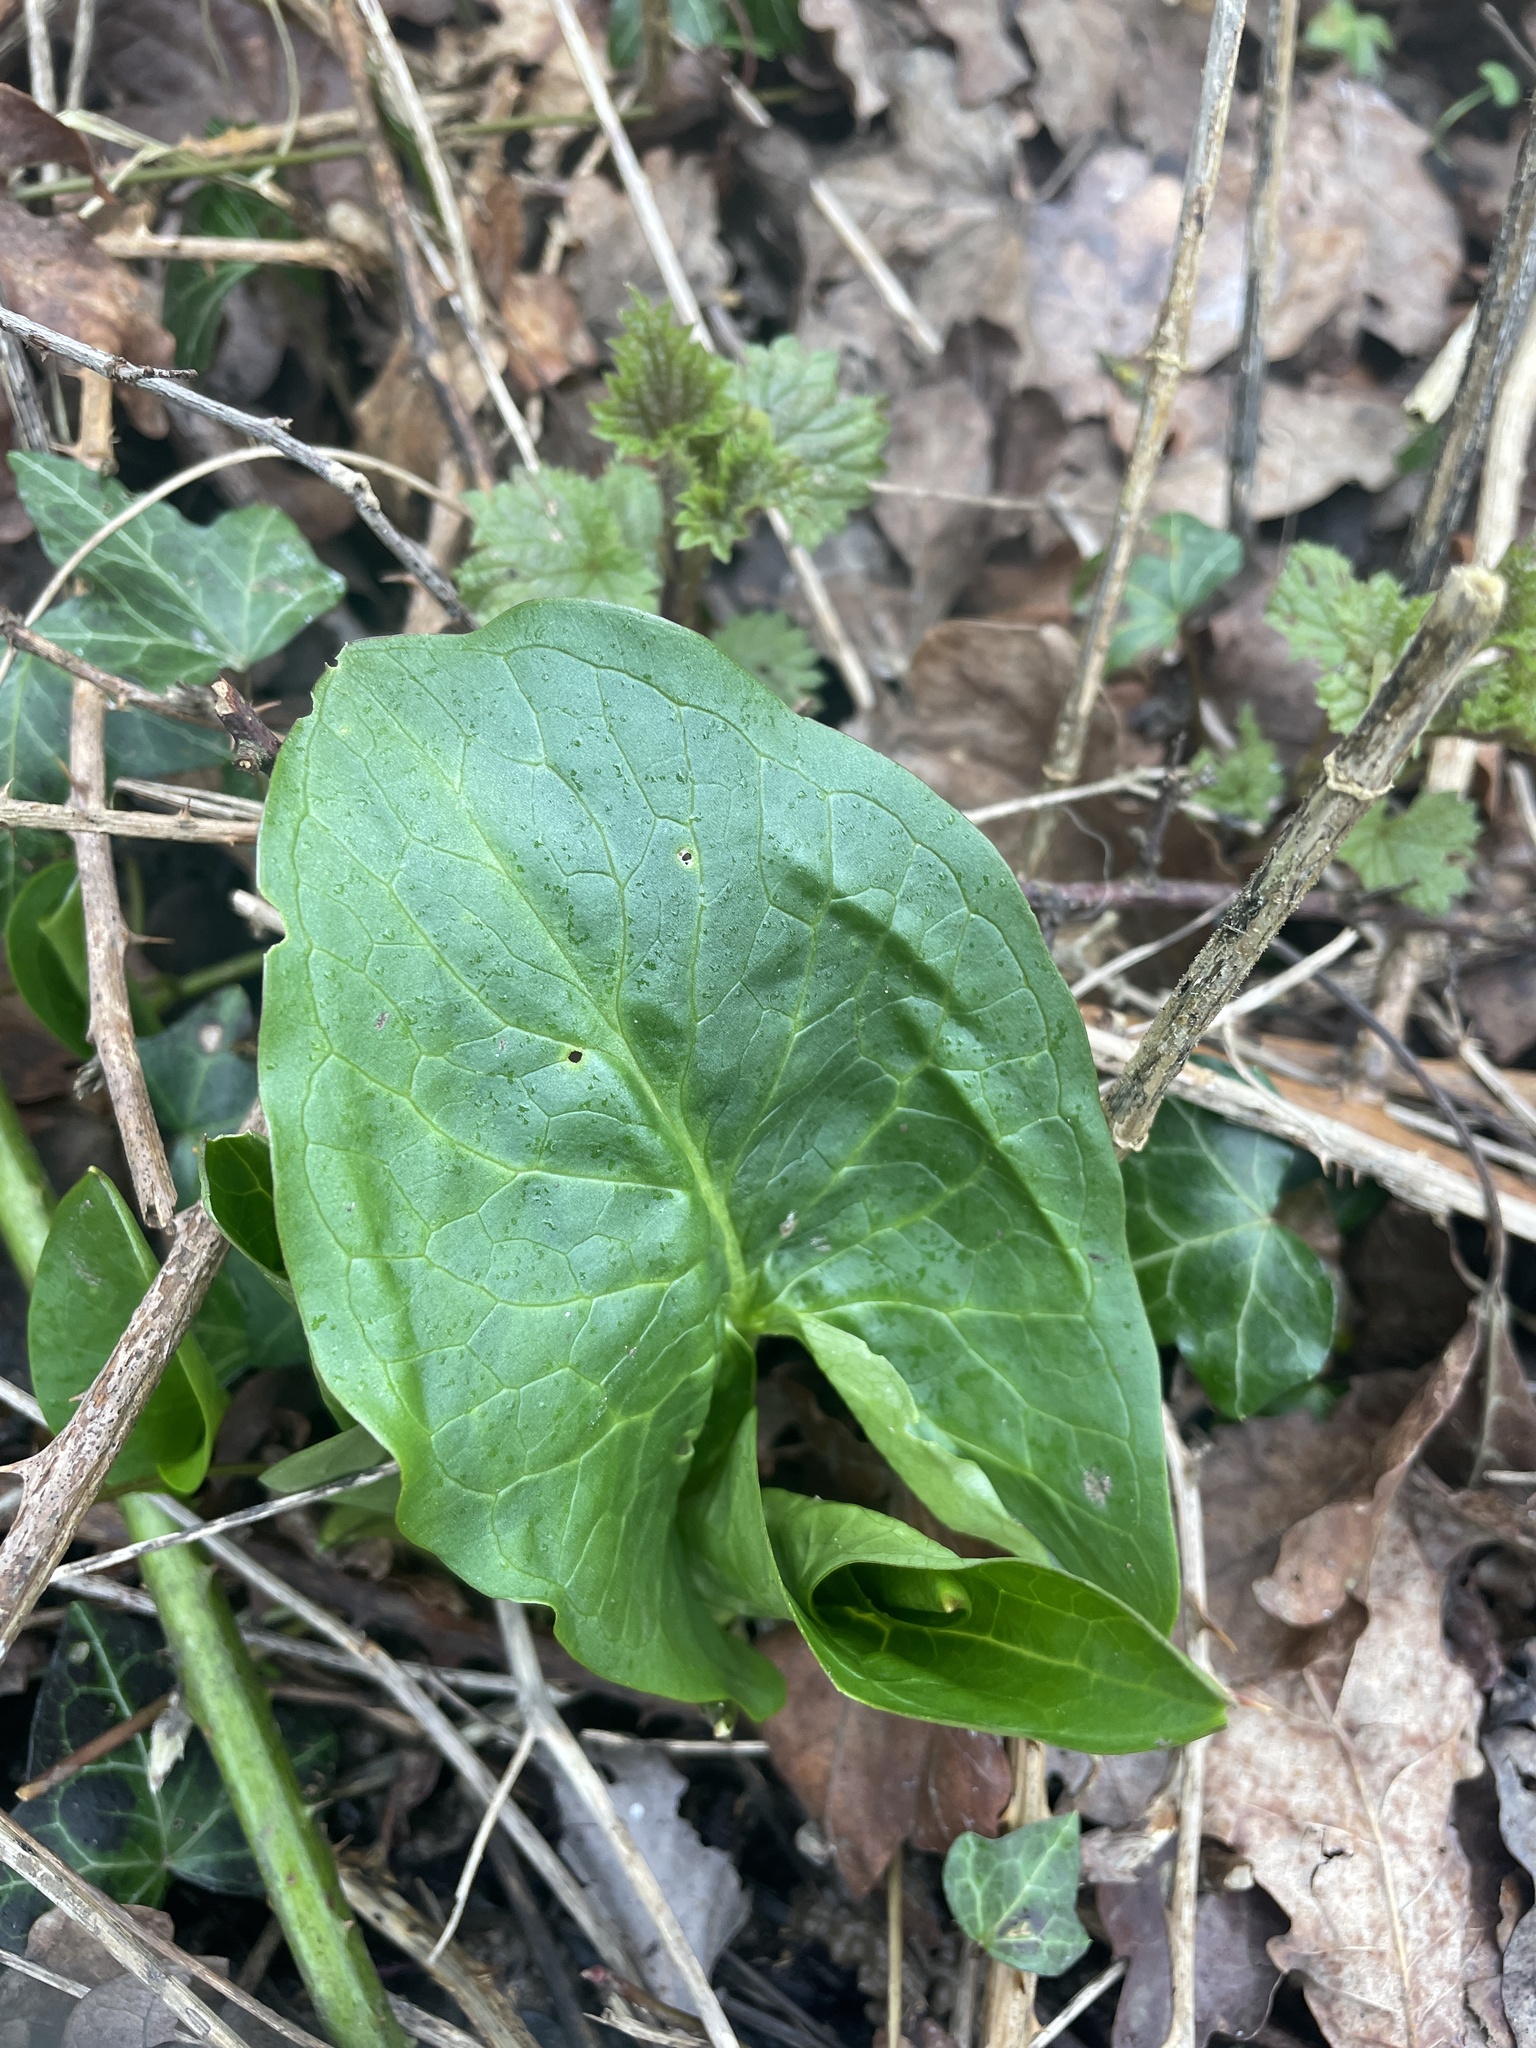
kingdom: Plantae
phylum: Tracheophyta
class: Liliopsida
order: Alismatales
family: Araceae
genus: Arum
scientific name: Arum maculatum
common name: Lords-and-ladies
